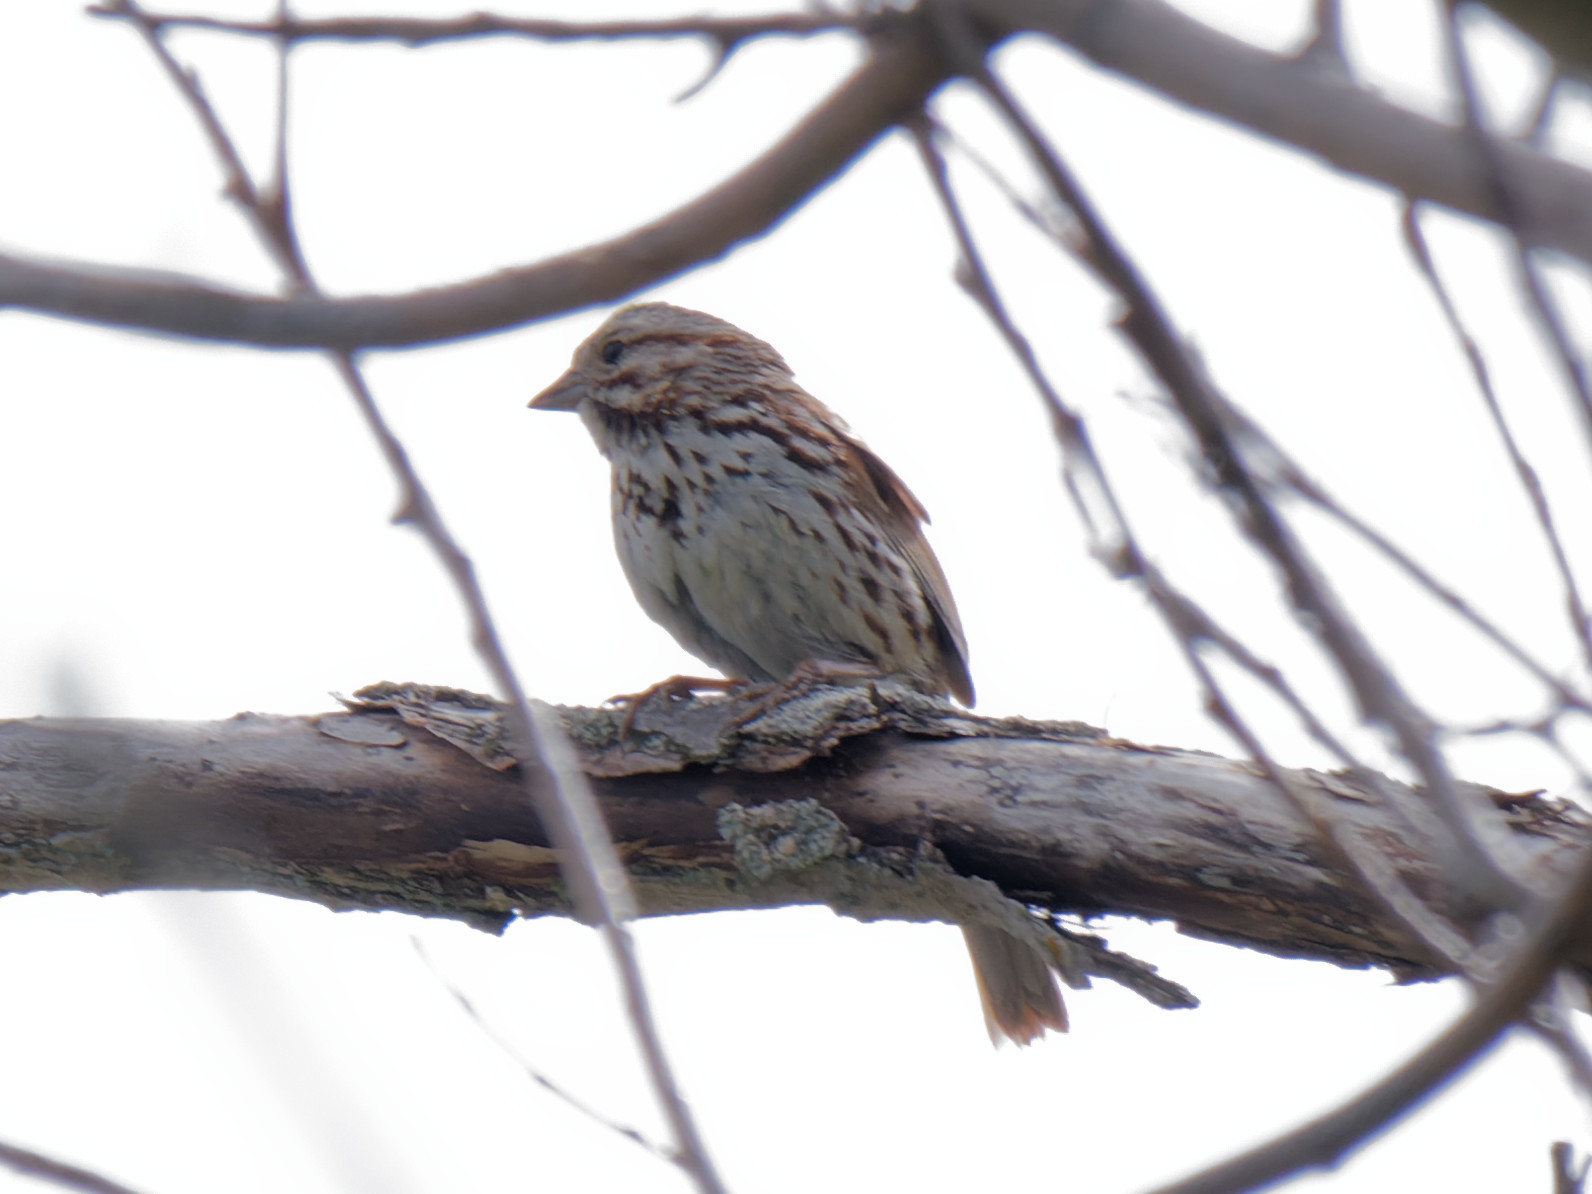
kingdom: Animalia
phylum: Chordata
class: Aves
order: Passeriformes
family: Passerellidae
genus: Melospiza
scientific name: Melospiza melodia
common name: Song sparrow
